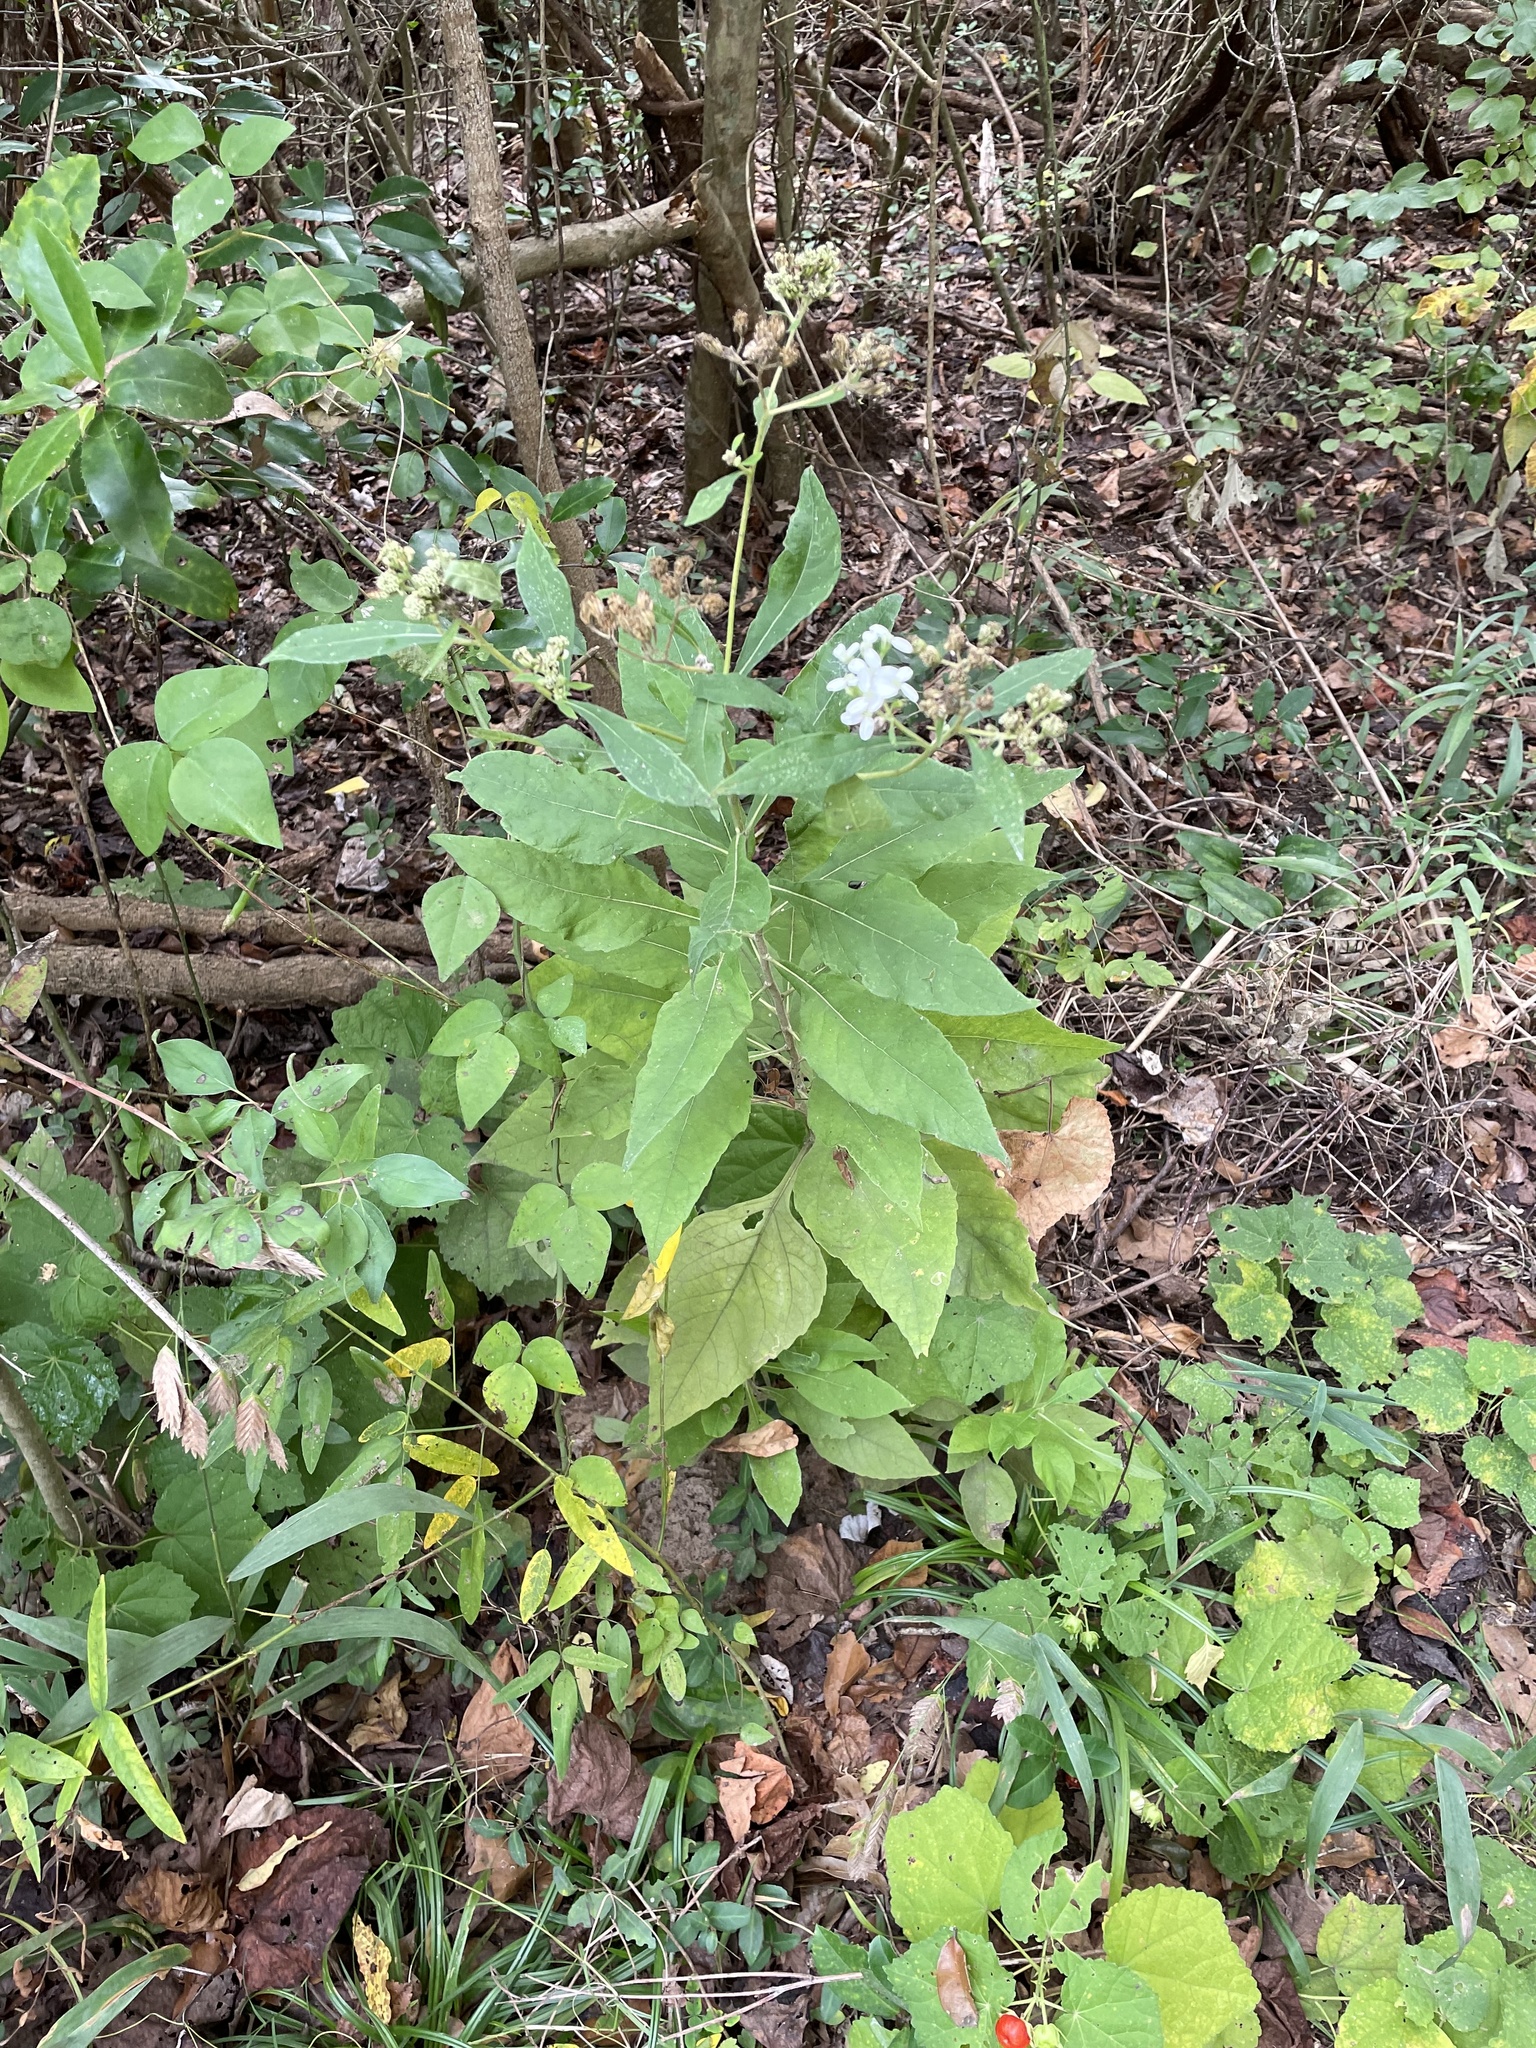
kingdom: Plantae
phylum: Tracheophyta
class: Magnoliopsida
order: Asterales
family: Asteraceae
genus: Verbesina
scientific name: Verbesina virginica
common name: Frostweed
